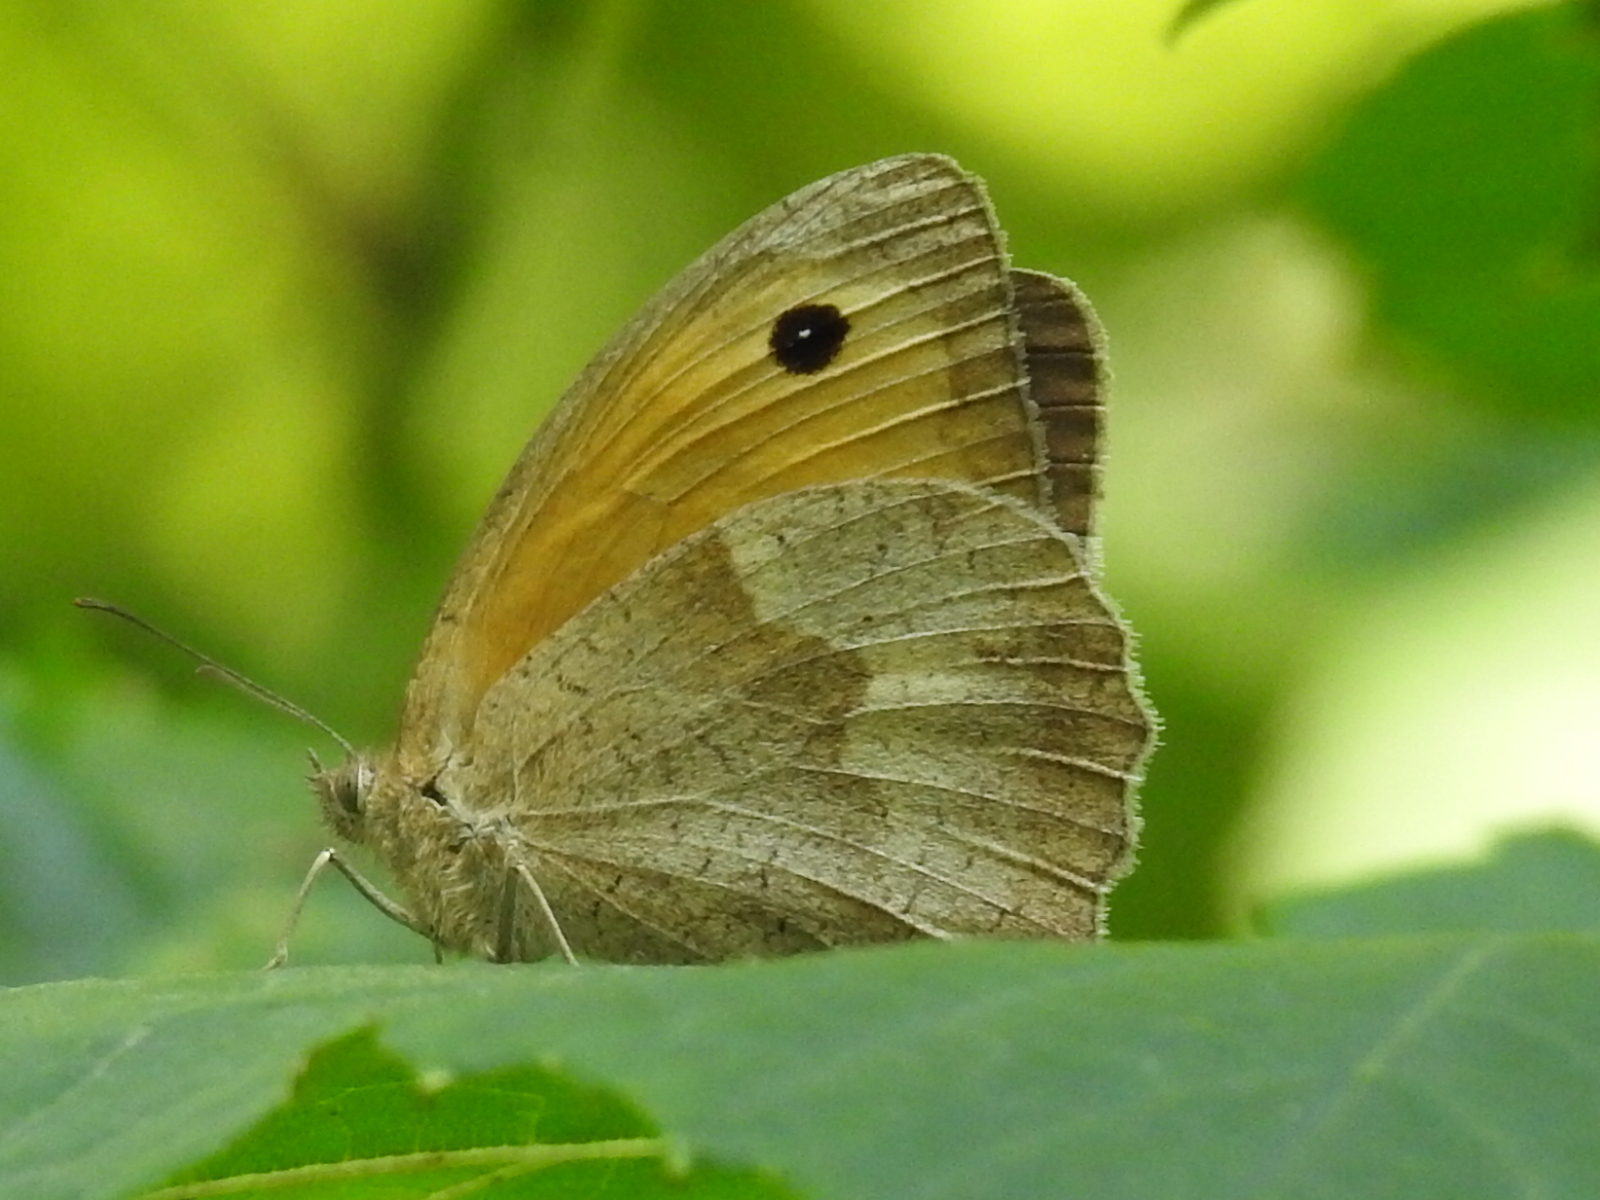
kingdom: Animalia
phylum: Arthropoda
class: Insecta
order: Lepidoptera
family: Nymphalidae
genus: Maniola
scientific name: Maniola jurtina
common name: Meadow brown
